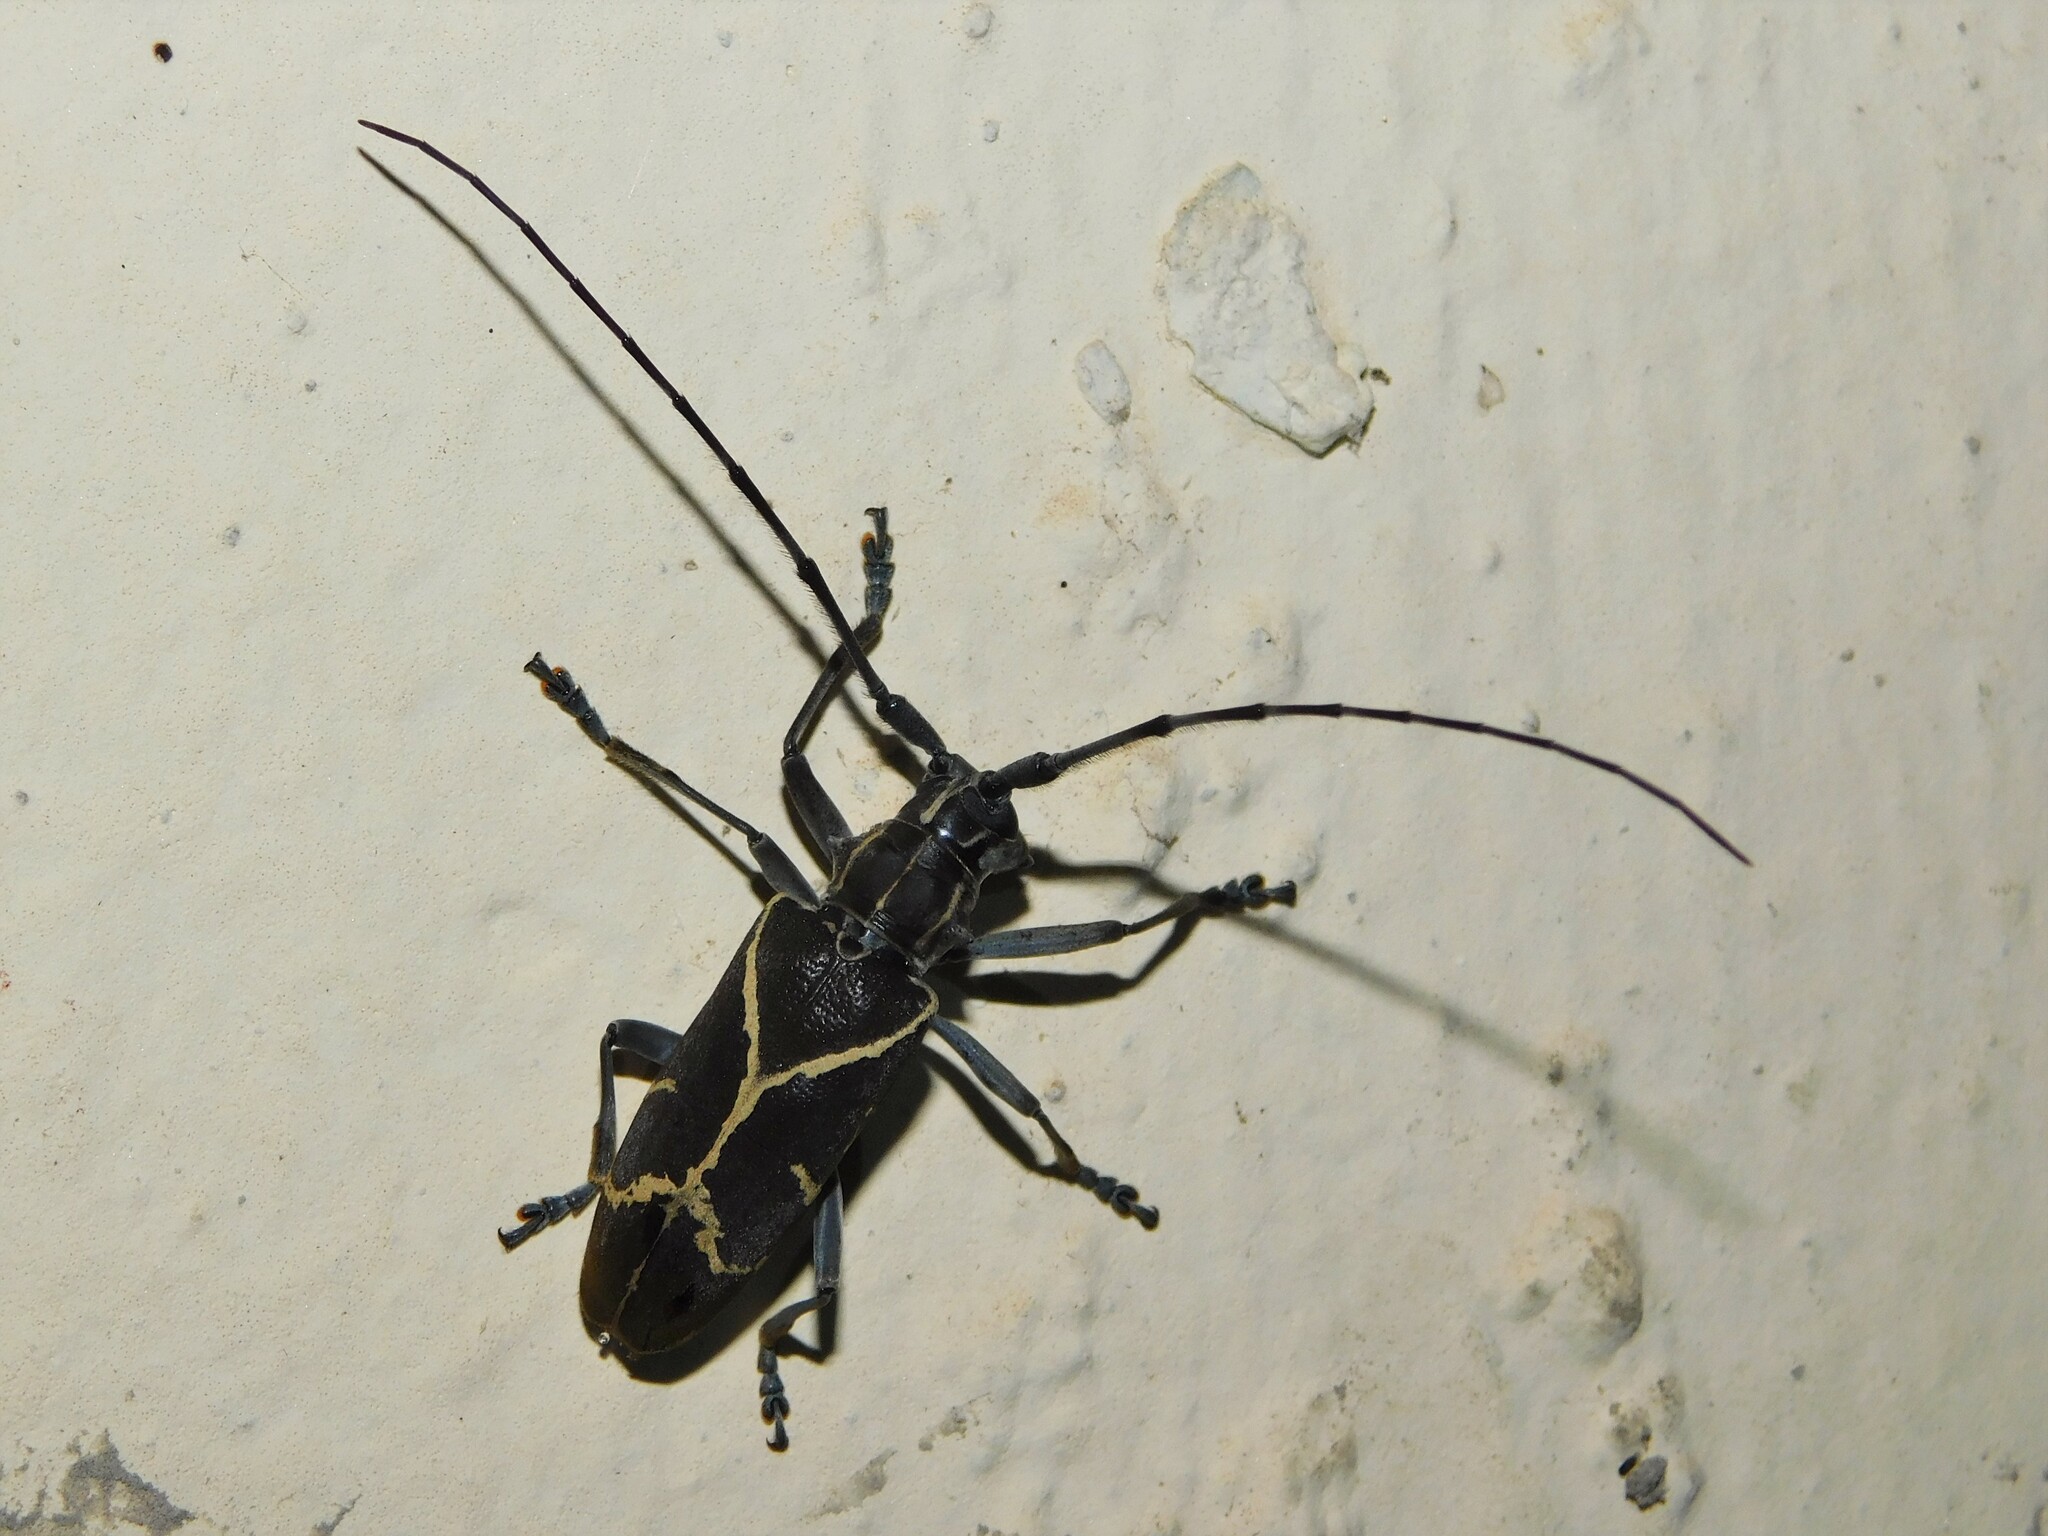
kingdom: Animalia
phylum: Arthropoda
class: Insecta
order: Coleoptera
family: Cerambycidae
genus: Monochamus
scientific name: Monochamus x-fulvum
